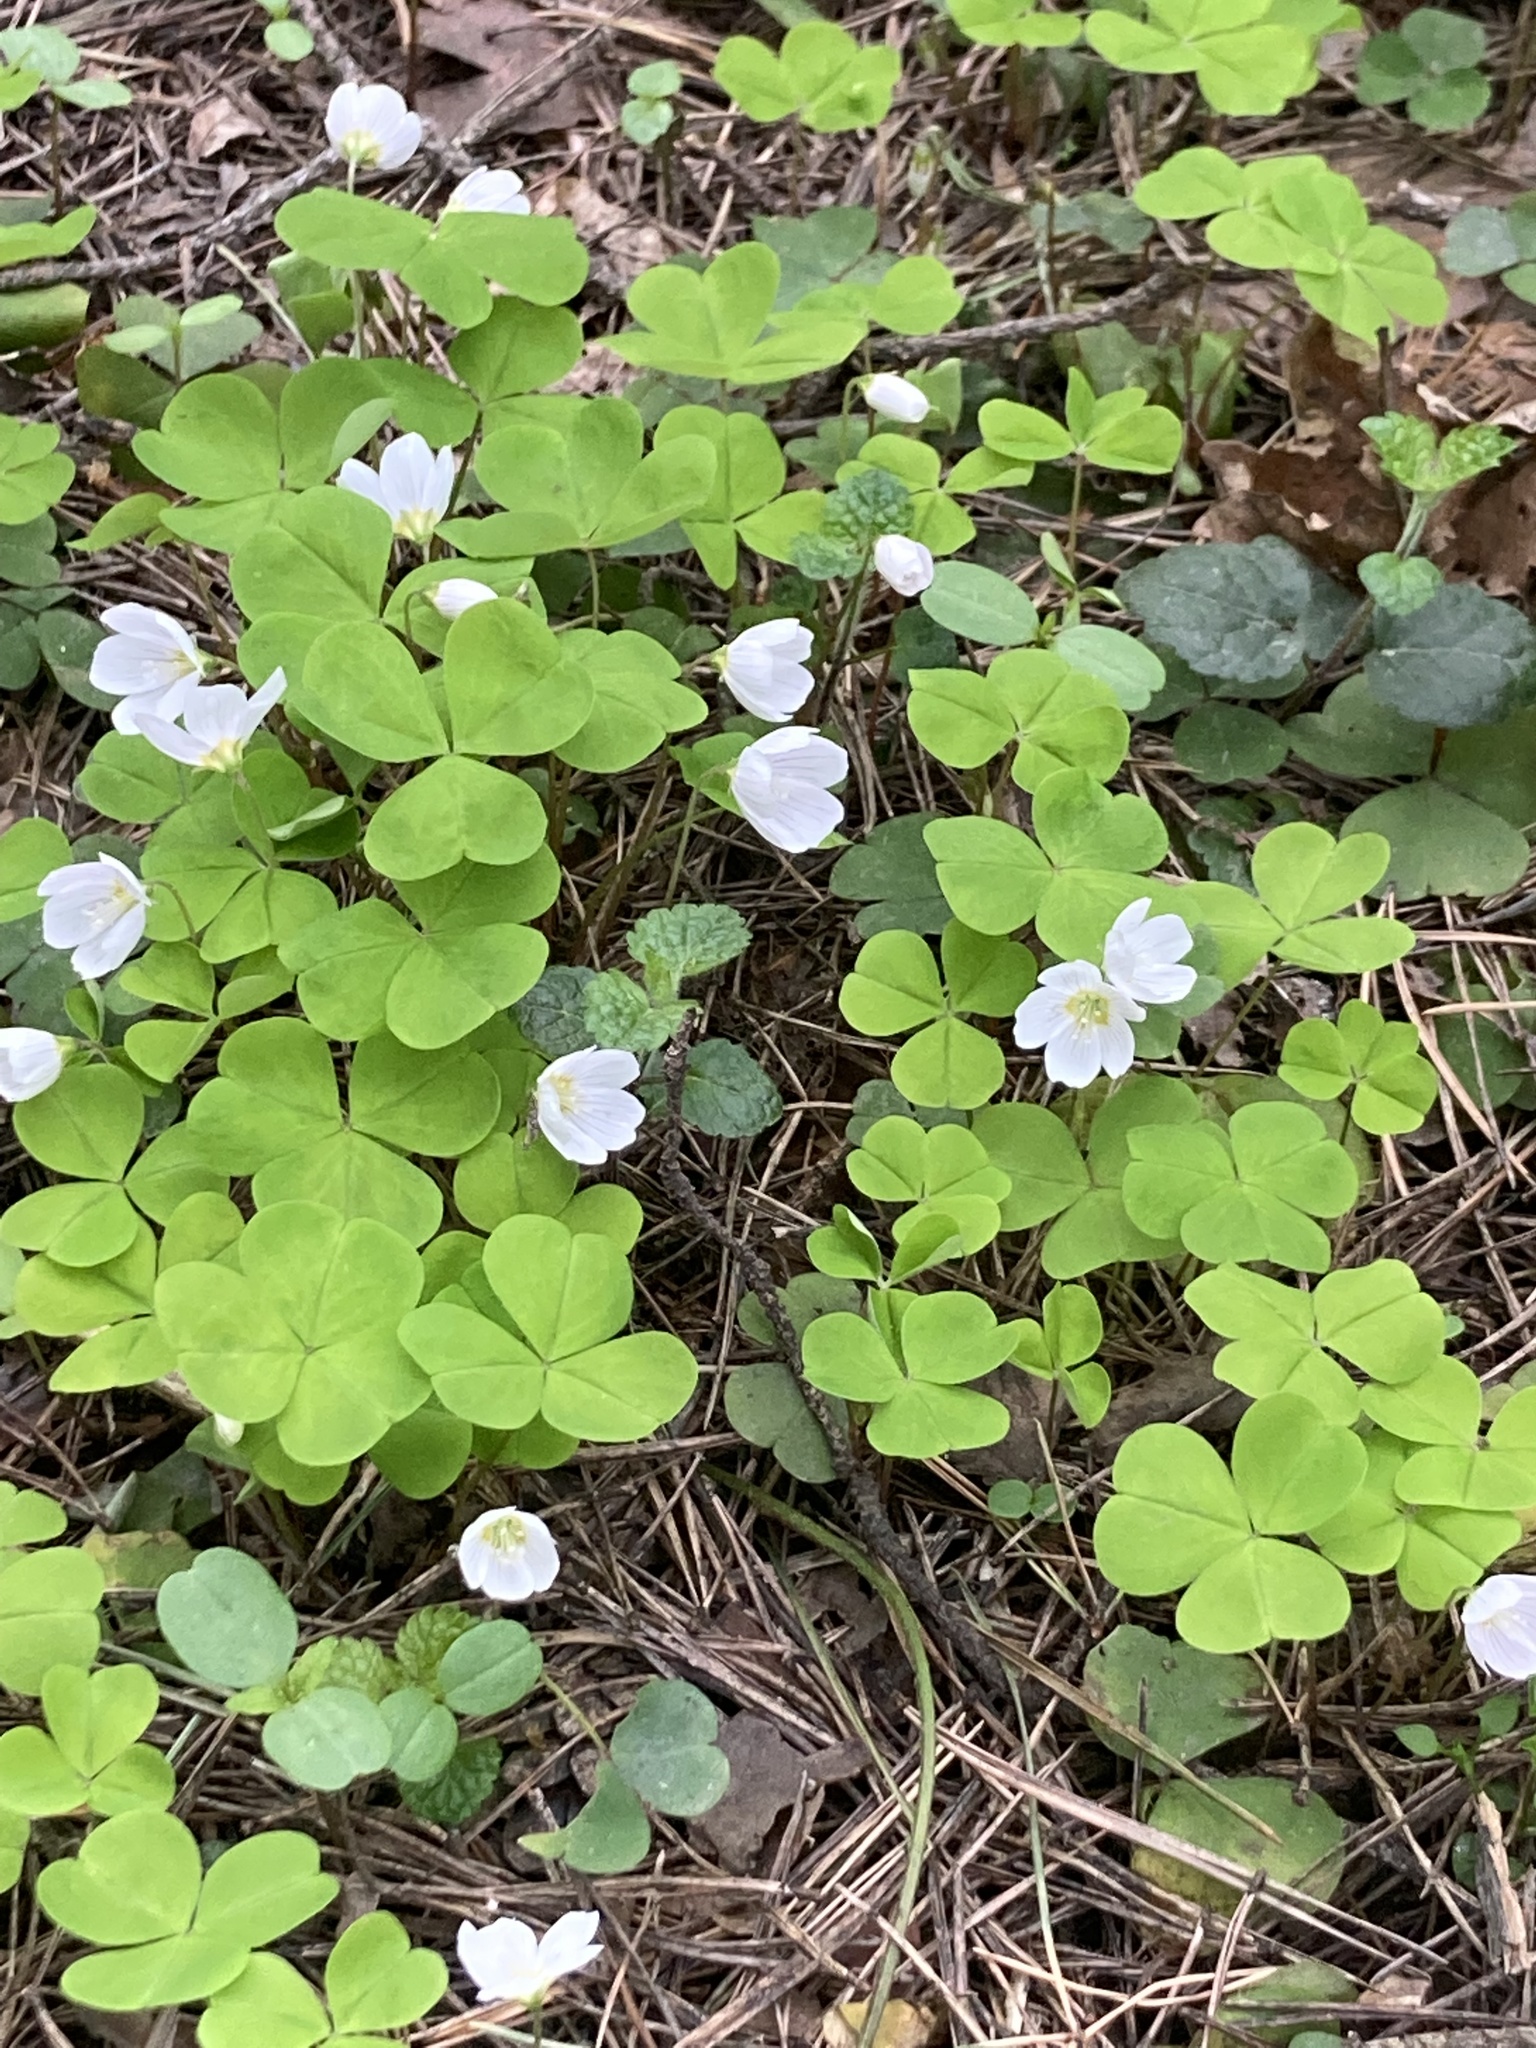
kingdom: Plantae
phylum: Tracheophyta
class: Magnoliopsida
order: Oxalidales
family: Oxalidaceae
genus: Oxalis
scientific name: Oxalis acetosella
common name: Wood-sorrel
